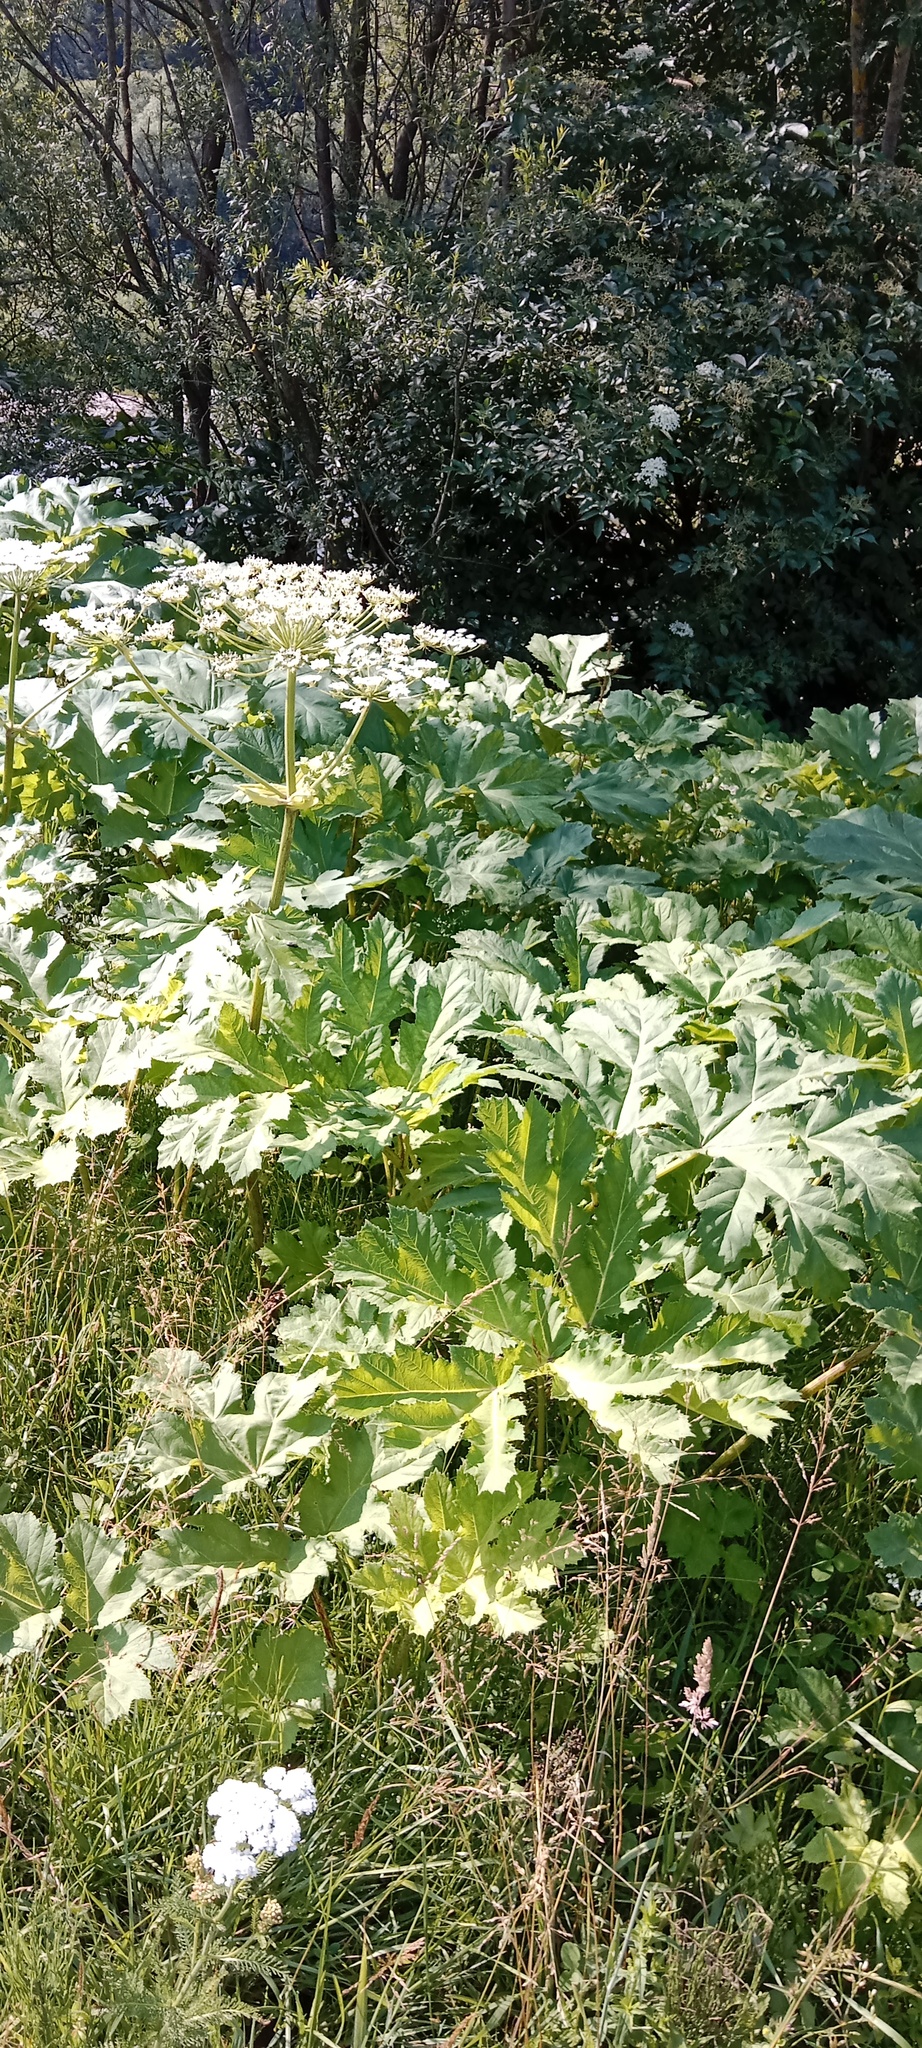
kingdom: Plantae
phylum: Tracheophyta
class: Magnoliopsida
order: Apiales
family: Apiaceae
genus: Heracleum
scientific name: Heracleum sosnowskyi
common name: Sosnowsky's hogweed
